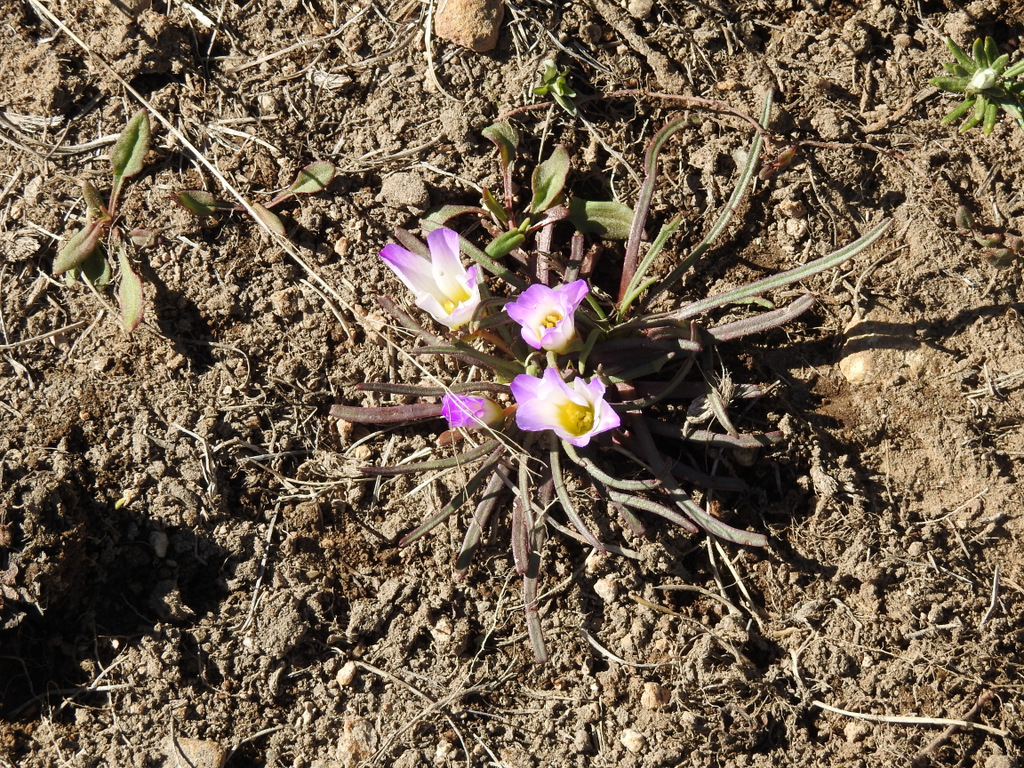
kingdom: Plantae
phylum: Tracheophyta
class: Magnoliopsida
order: Caryophyllales
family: Montiaceae
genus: Calandrinia
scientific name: Calandrinia affinis
